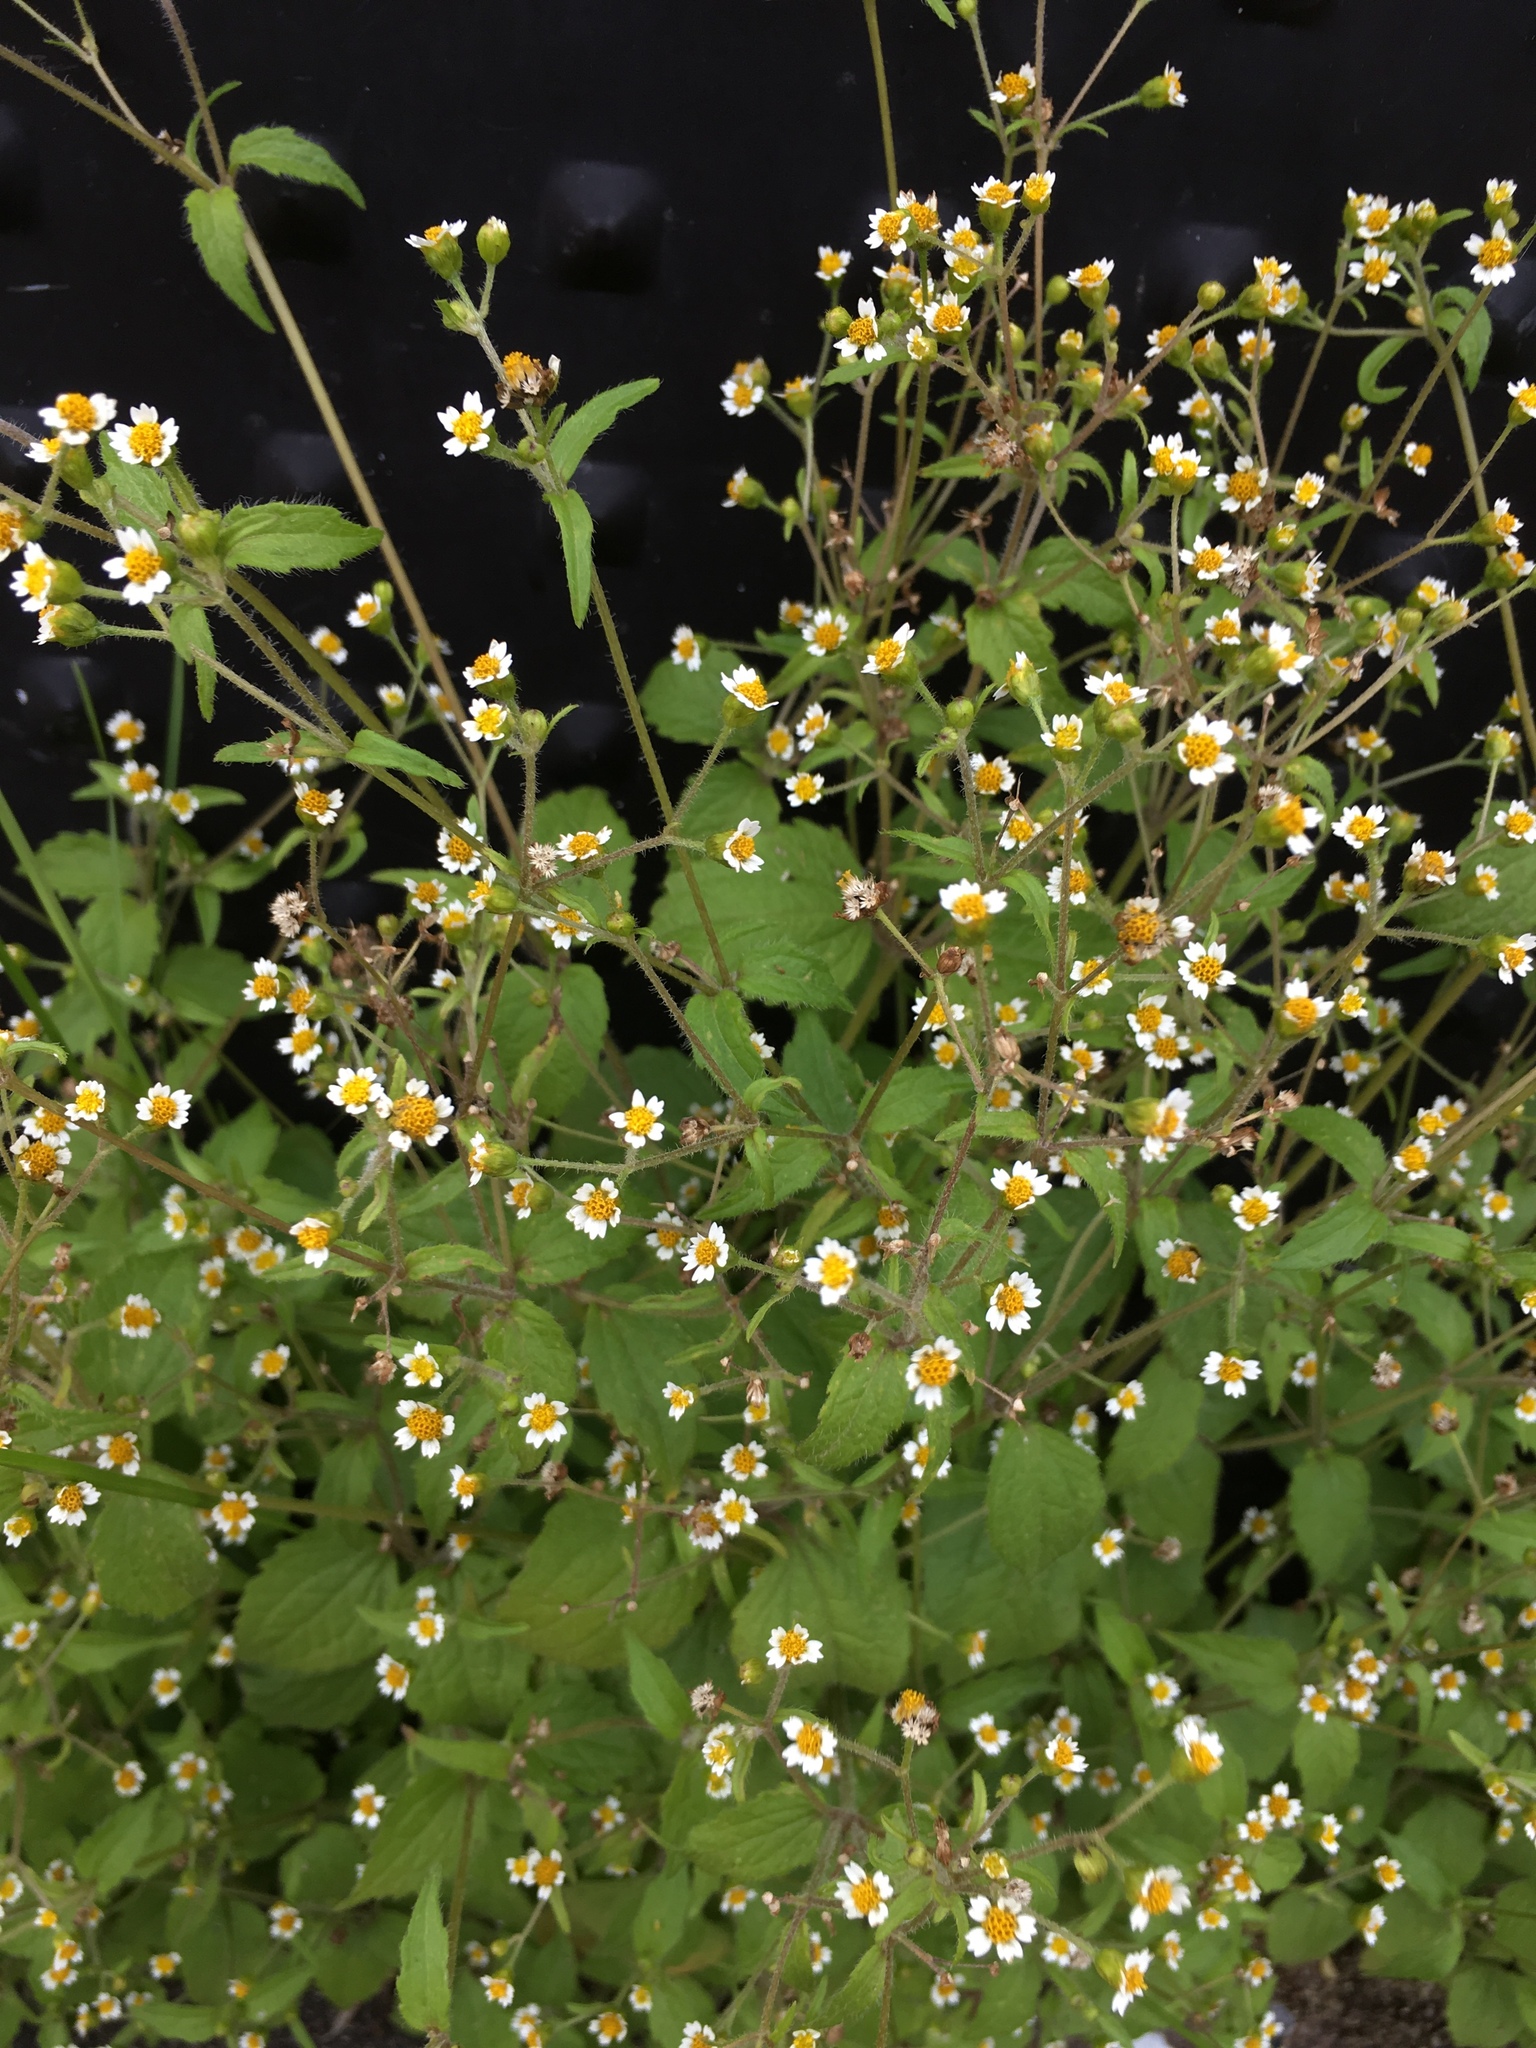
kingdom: Plantae
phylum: Tracheophyta
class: Magnoliopsida
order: Asterales
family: Asteraceae
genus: Galinsoga
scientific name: Galinsoga quadriradiata
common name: Shaggy soldier
